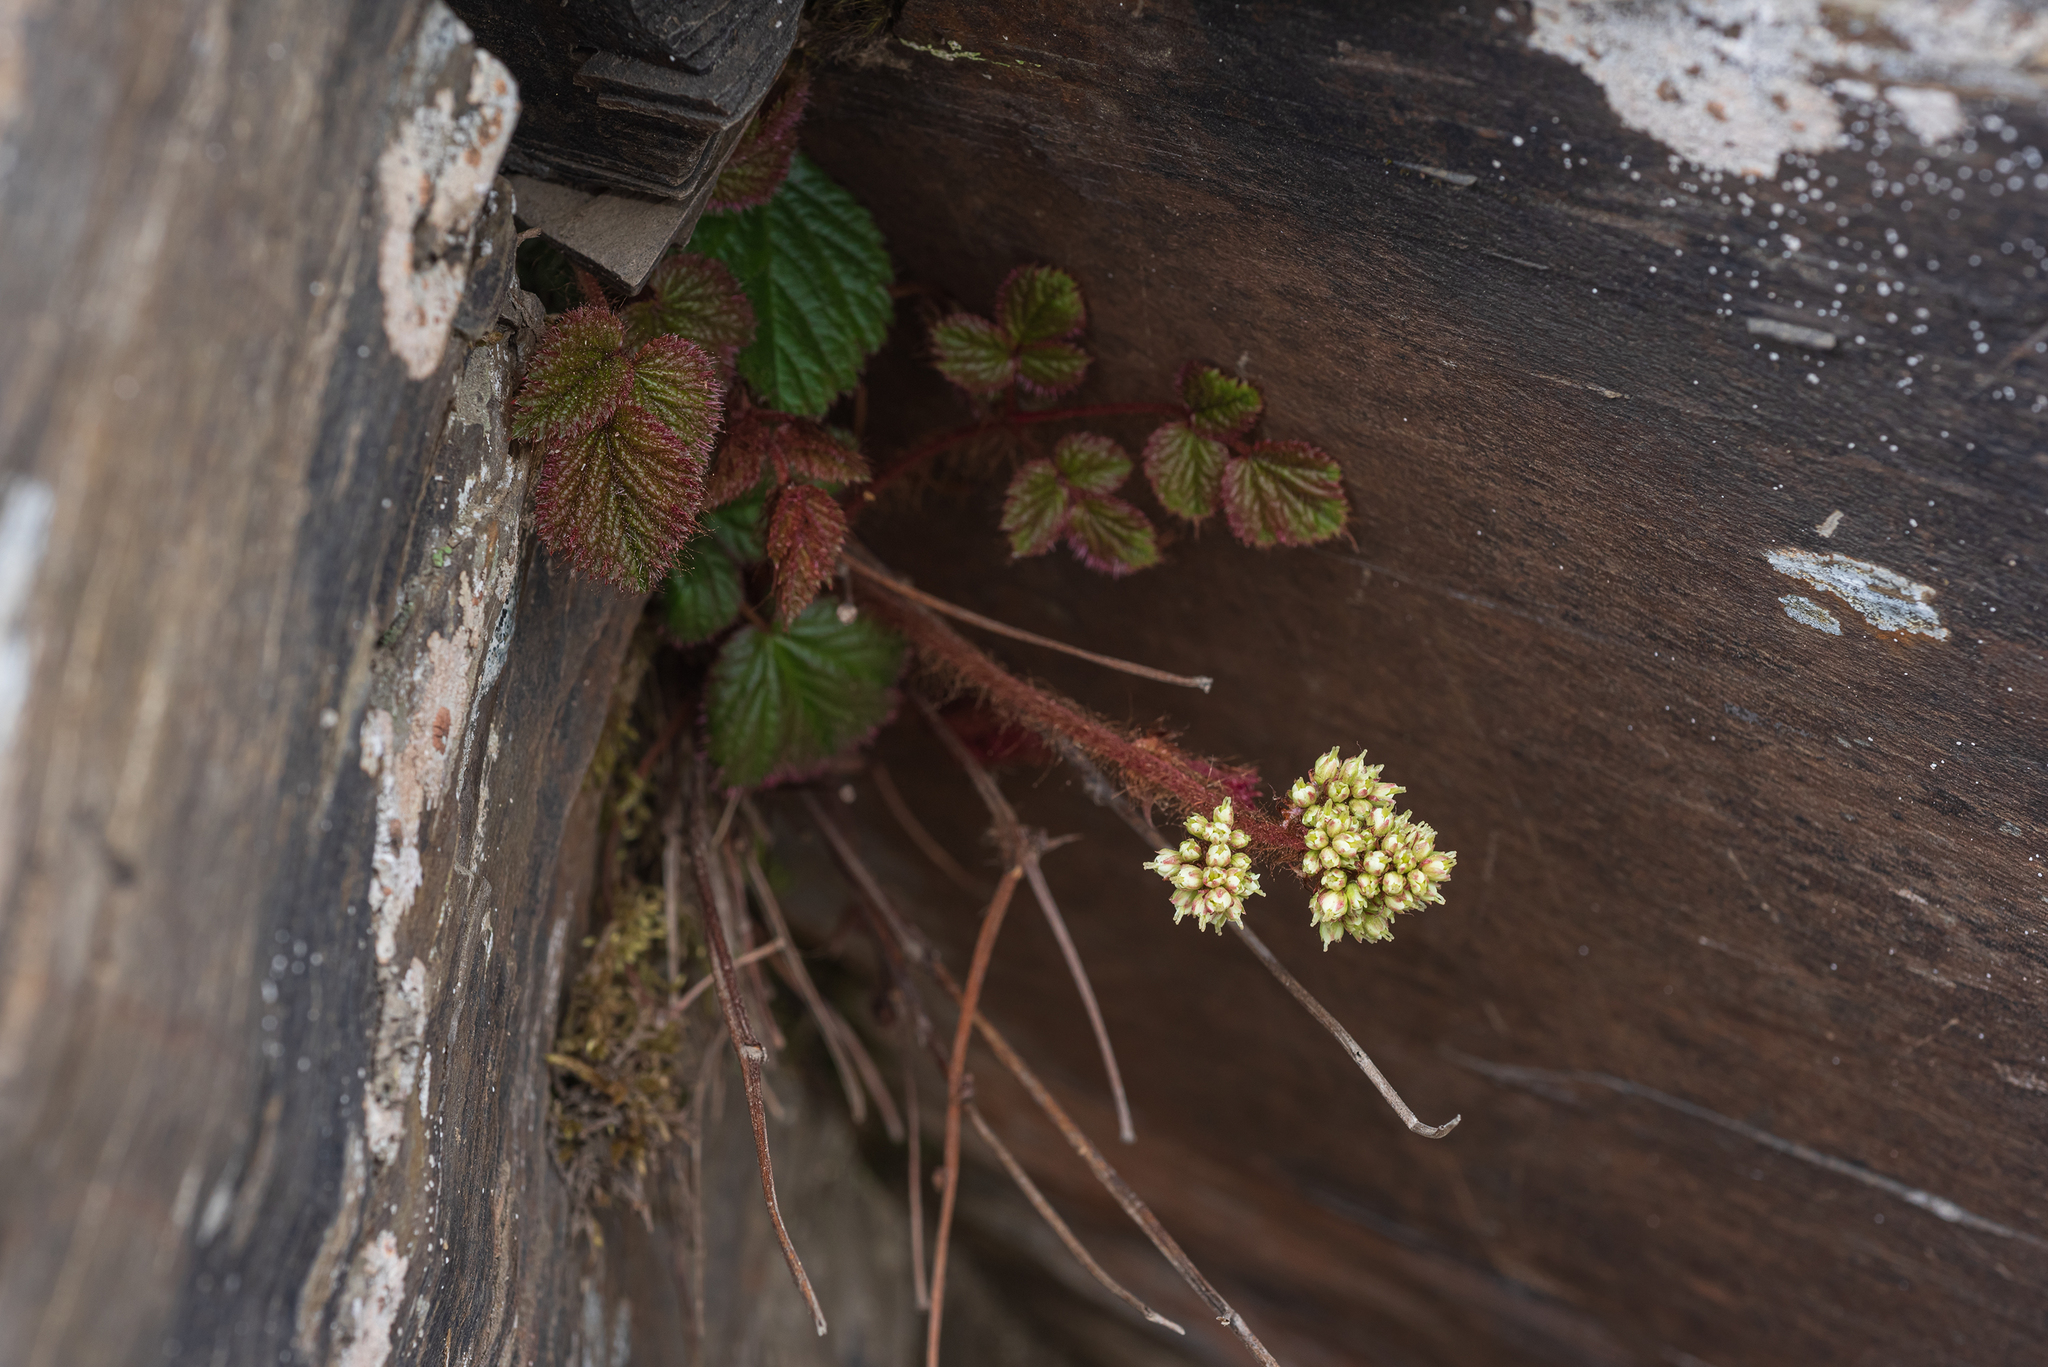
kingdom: Plantae
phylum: Tracheophyta
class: Magnoliopsida
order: Saxifragales
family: Saxifragaceae
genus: Astilbe
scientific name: Astilbe macroflora
